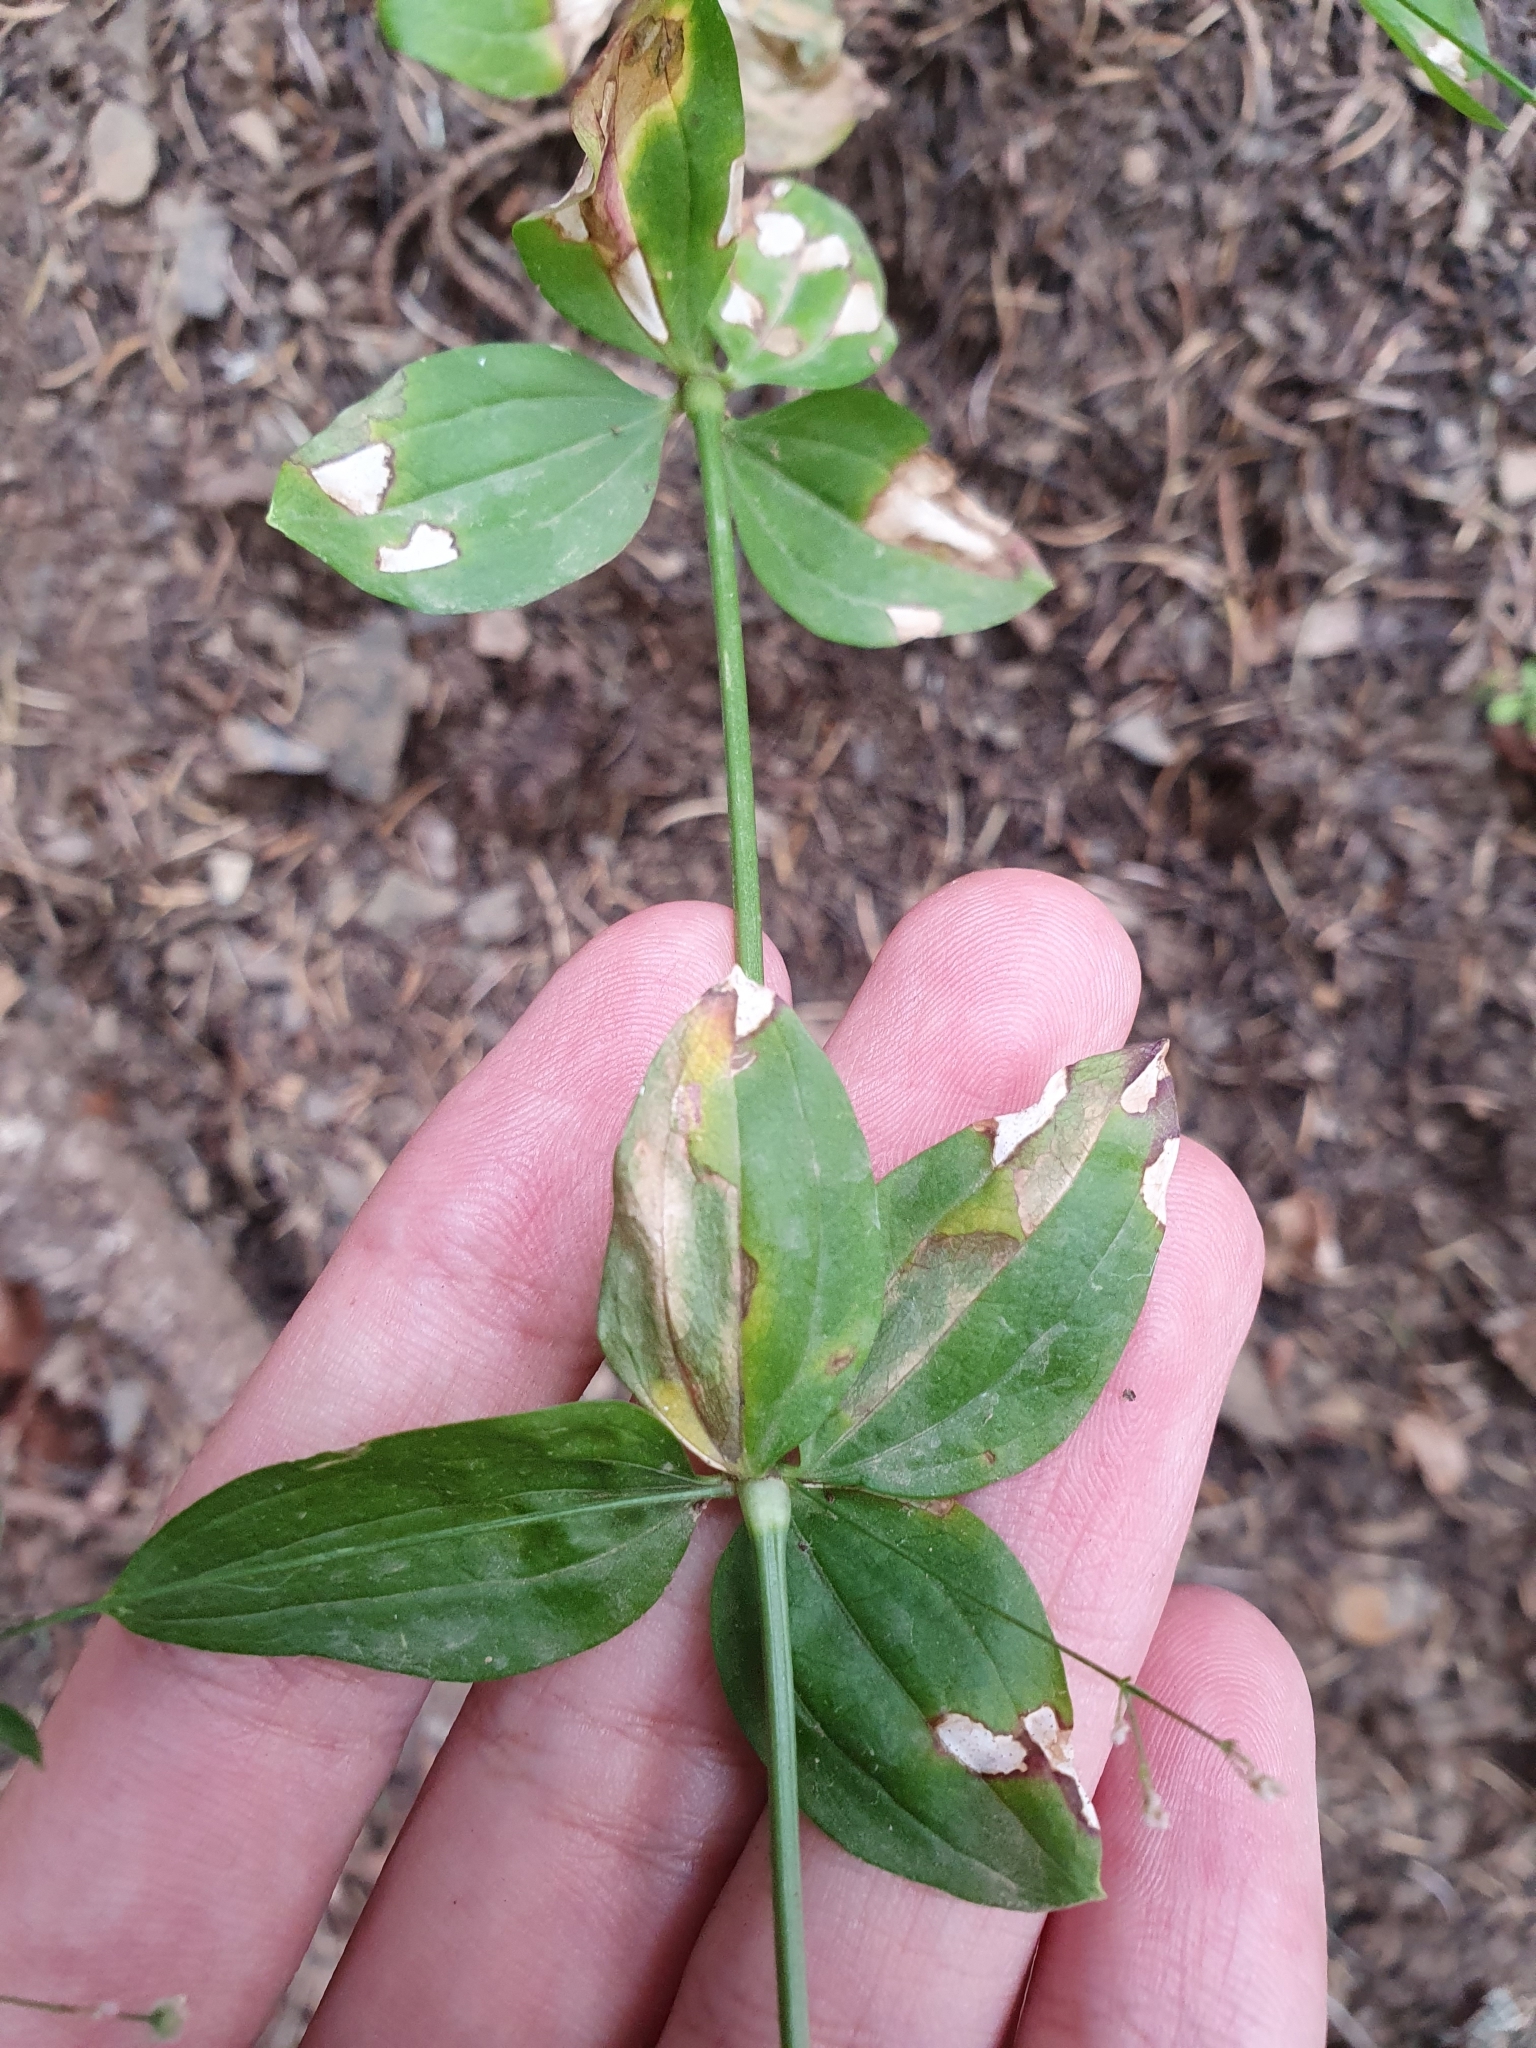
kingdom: Plantae
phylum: Tracheophyta
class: Magnoliopsida
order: Gentianales
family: Rubiaceae
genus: Galium
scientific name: Galium scabrum
